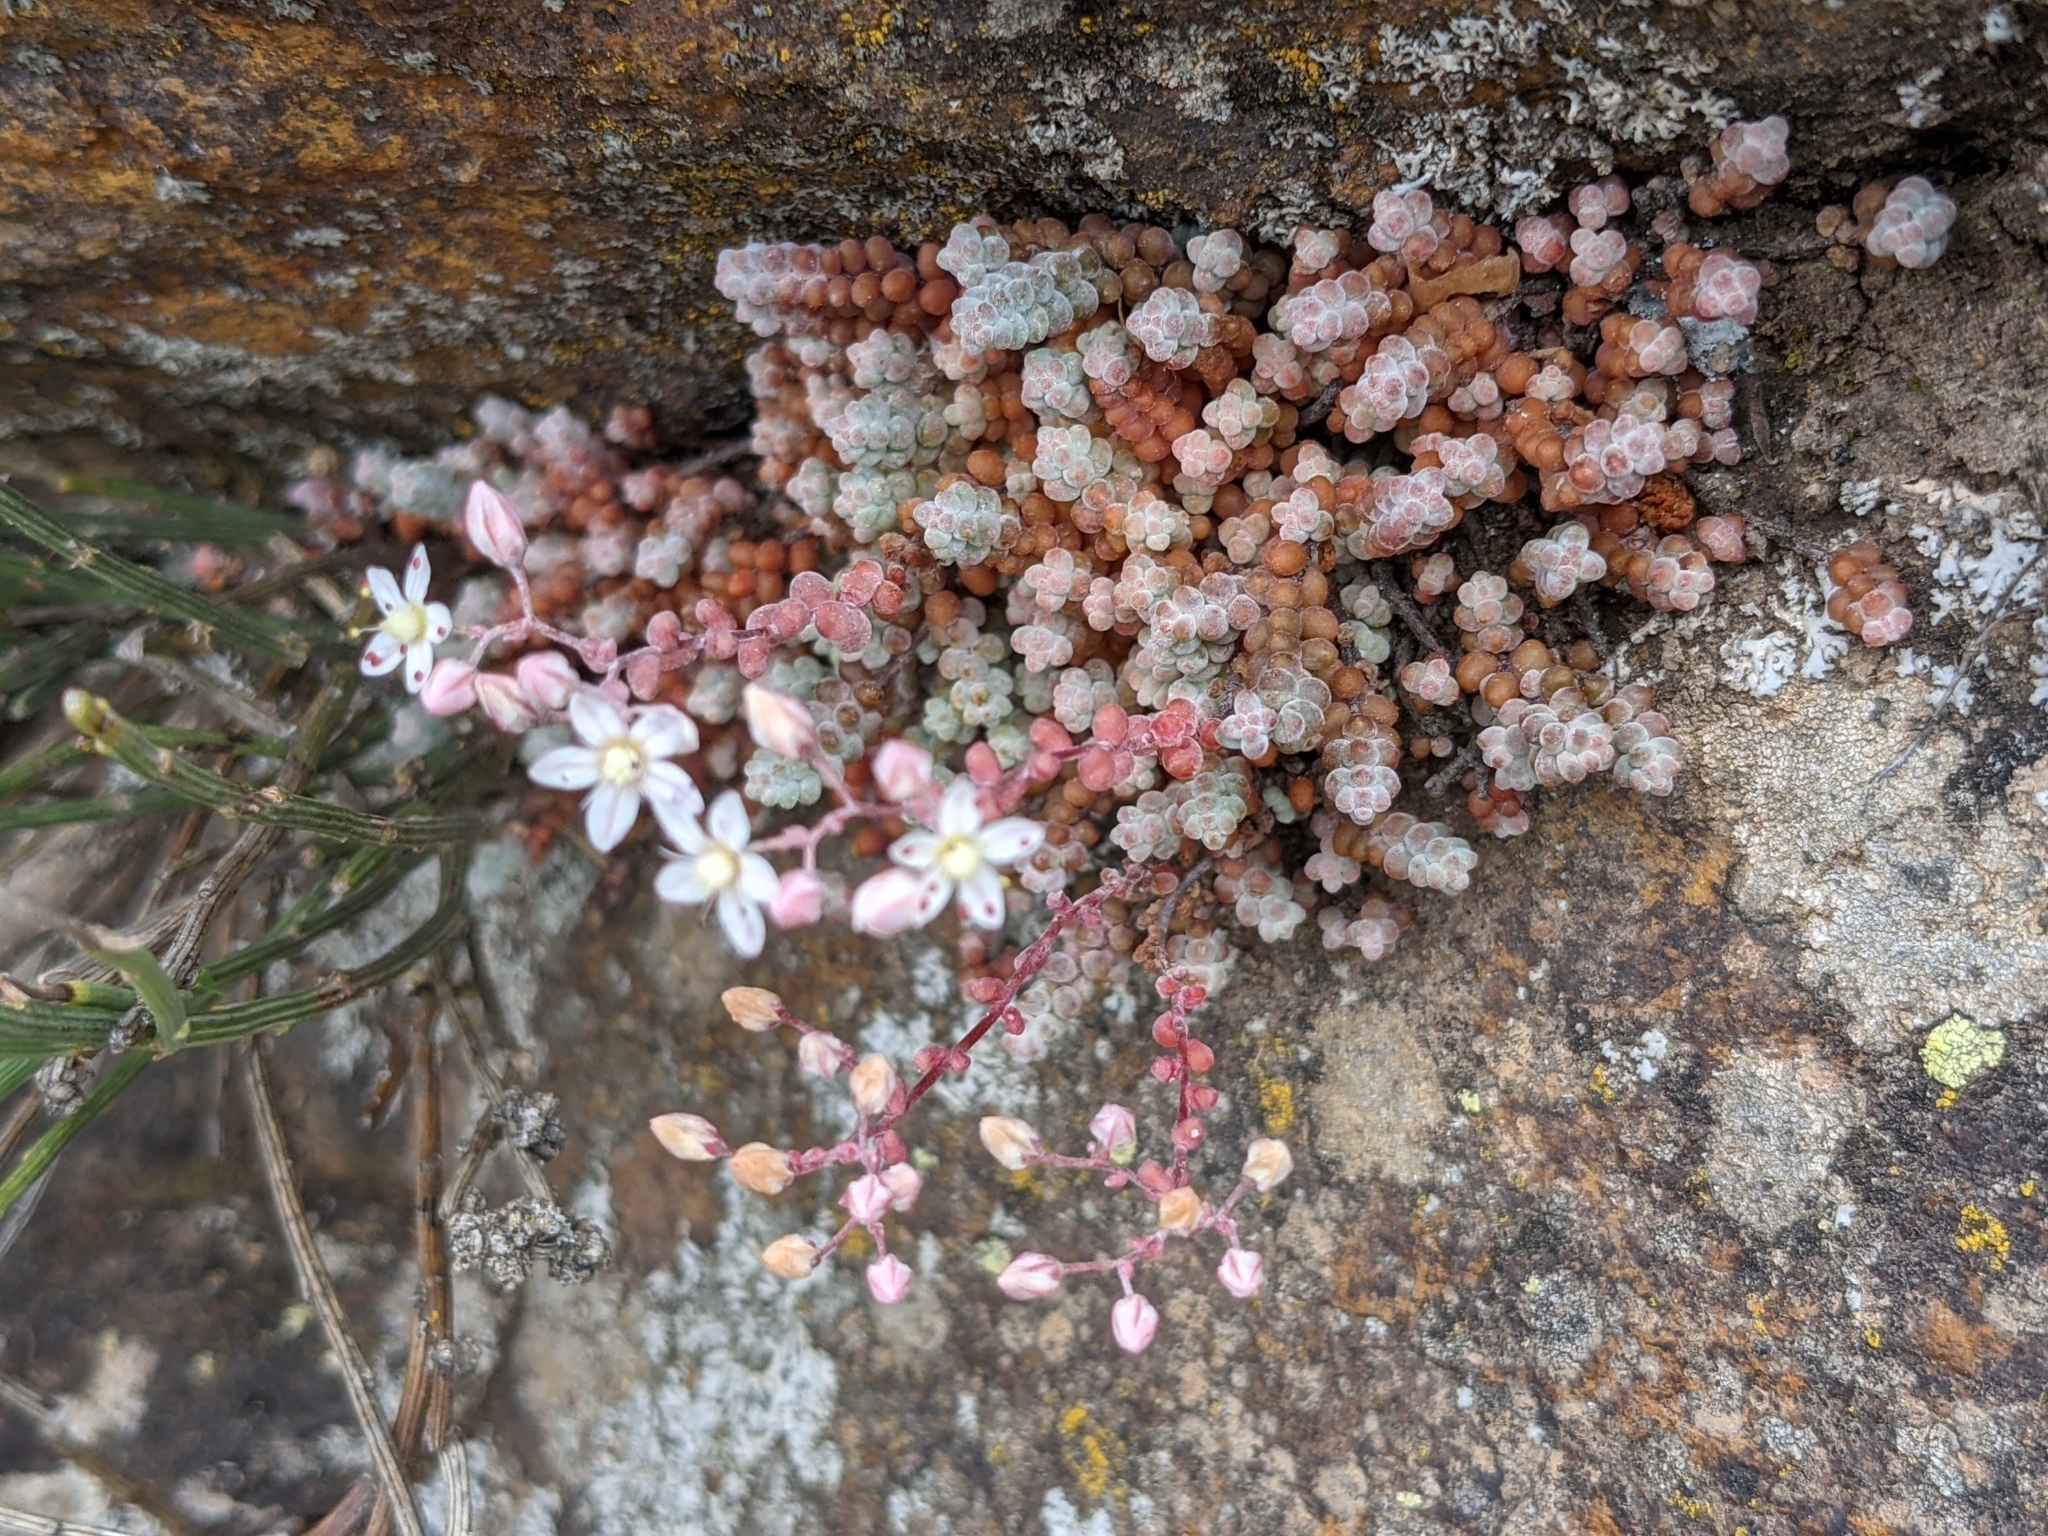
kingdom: Plantae
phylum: Tracheophyta
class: Magnoliopsida
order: Saxifragales
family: Crassulaceae
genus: Sedum
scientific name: Sedum brevifolium
